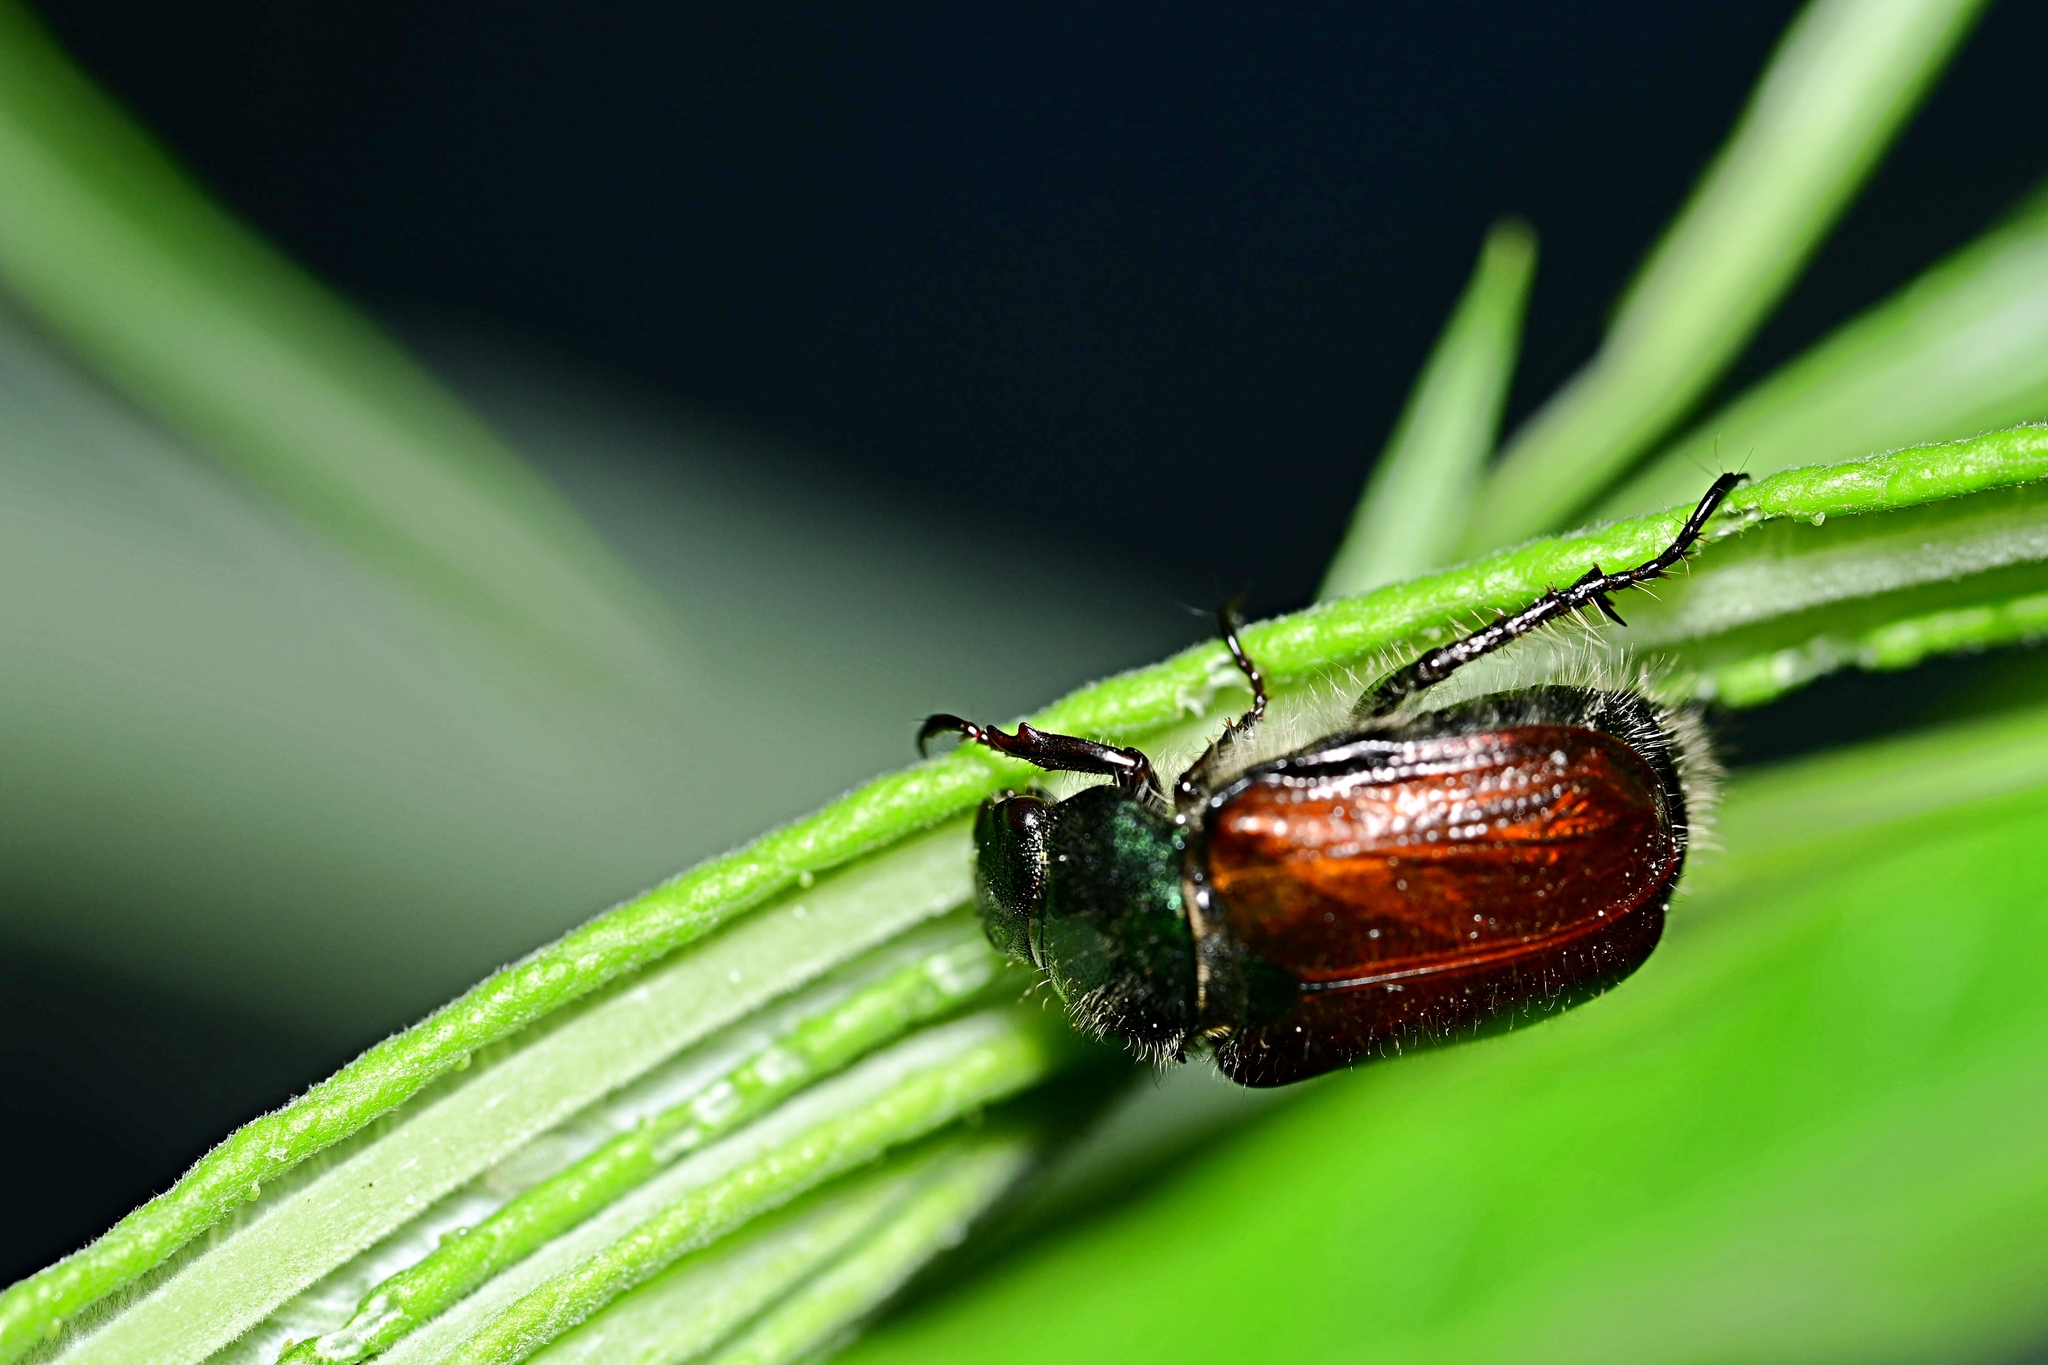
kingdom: Animalia
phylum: Arthropoda
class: Insecta
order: Coleoptera
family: Scarabaeidae
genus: Phyllopertha
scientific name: Phyllopertha horticola
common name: Garden chafer
